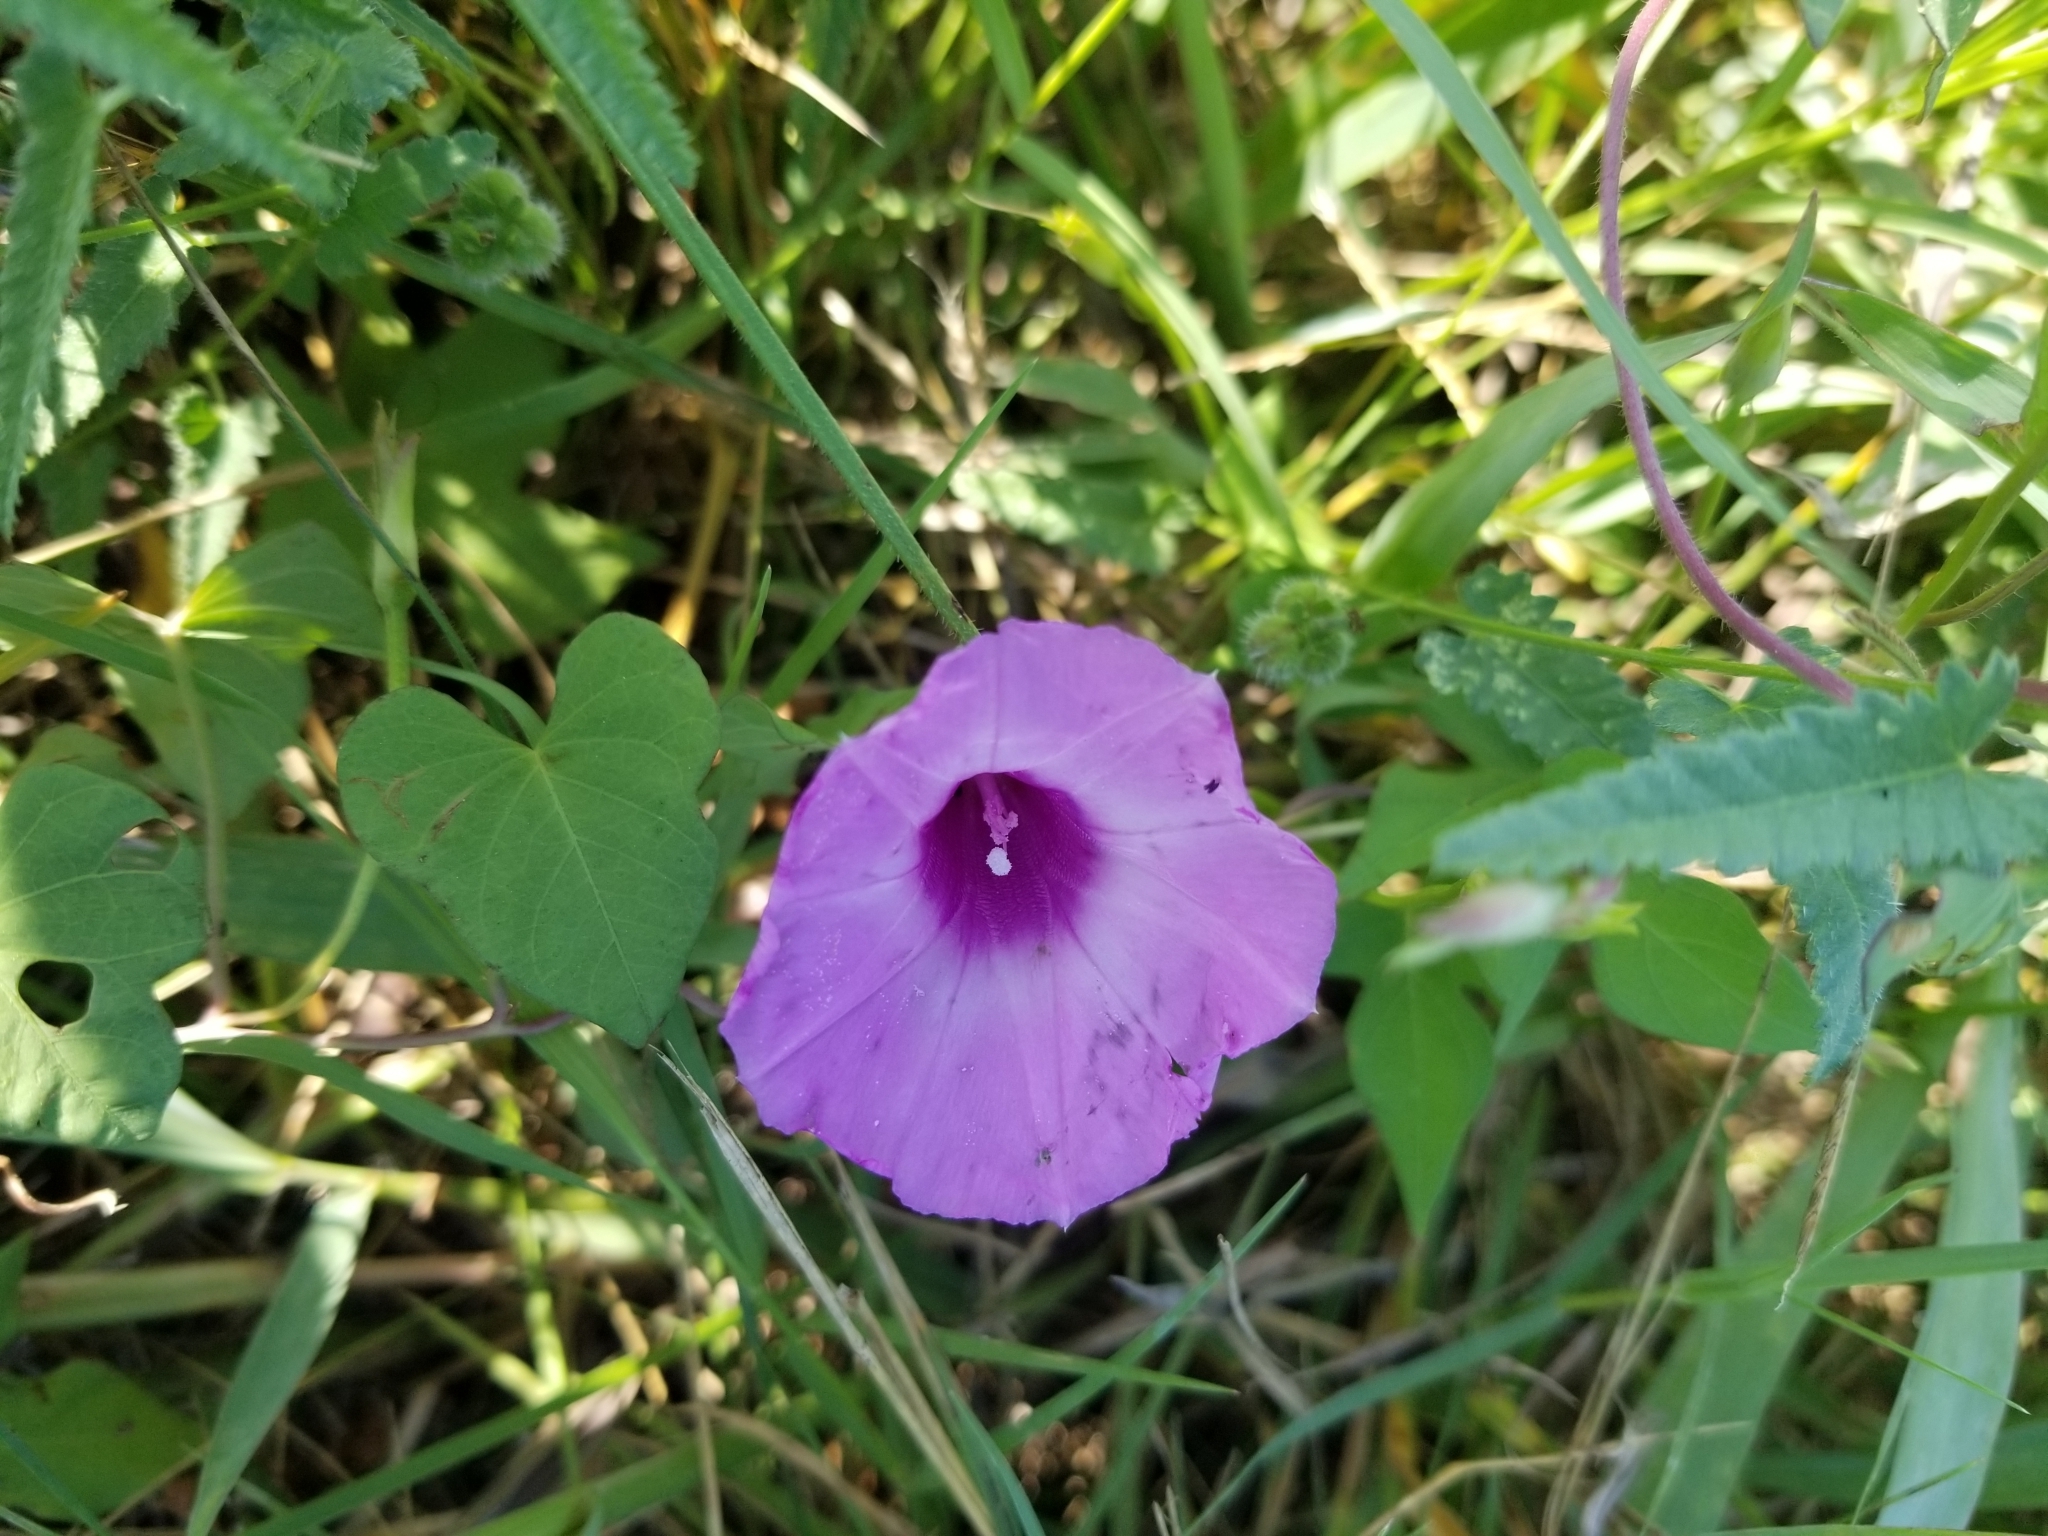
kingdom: Plantae
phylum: Tracheophyta
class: Magnoliopsida
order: Solanales
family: Convolvulaceae
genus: Ipomoea
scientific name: Ipomoea cordatotriloba
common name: Cotton morning glory
